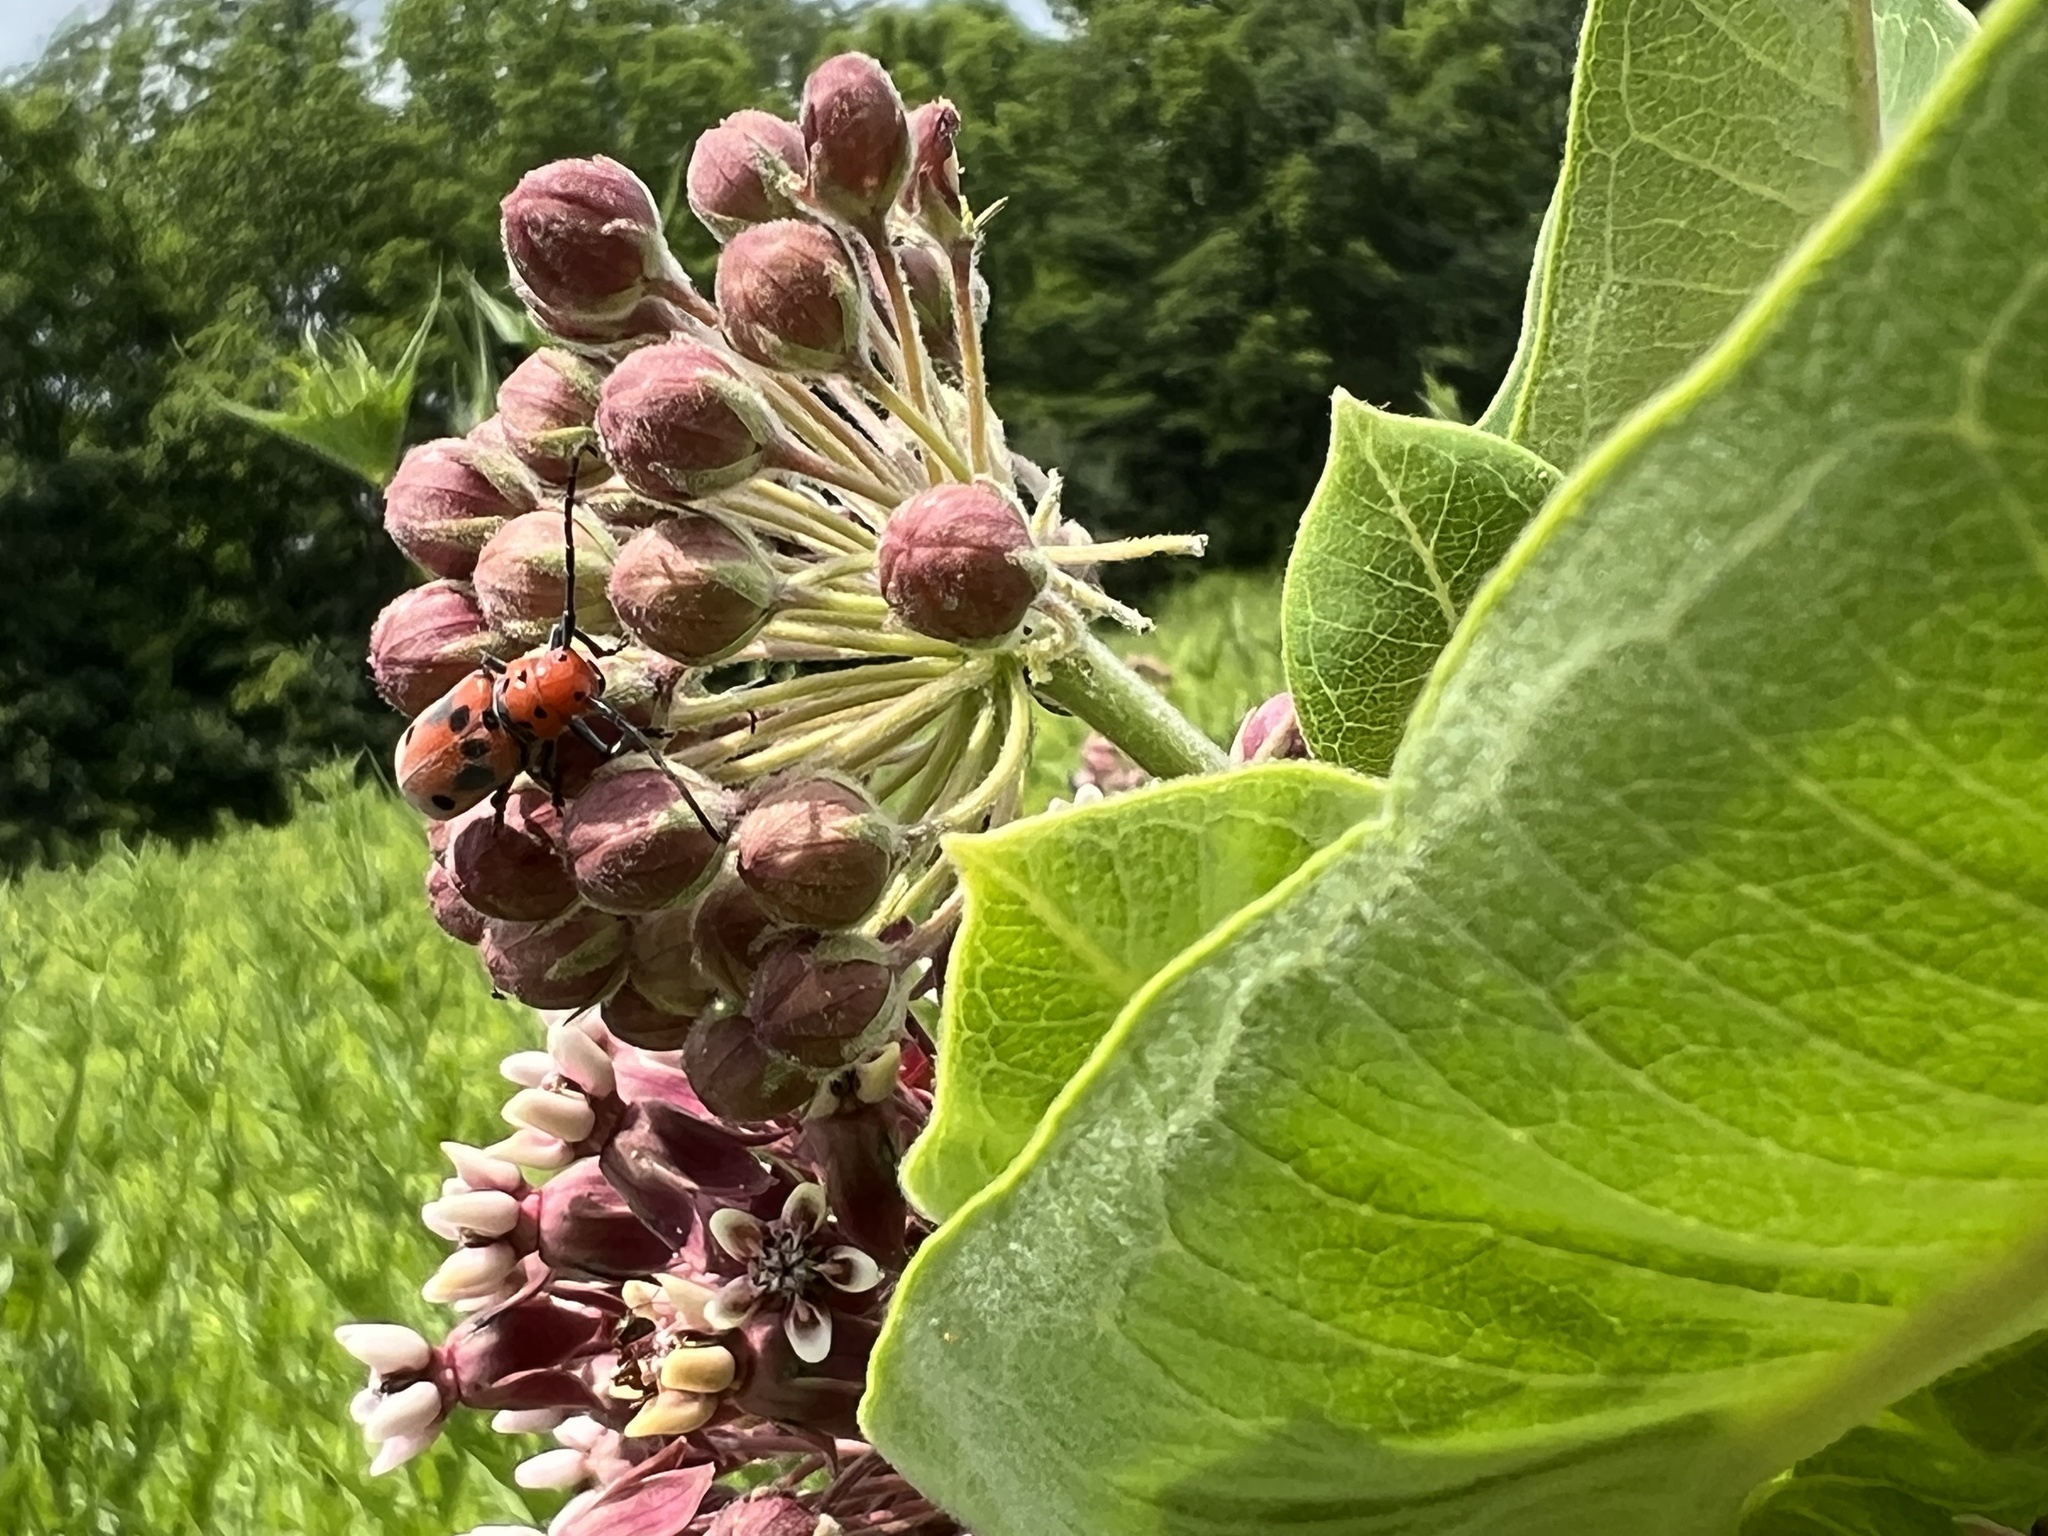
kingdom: Animalia
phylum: Arthropoda
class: Insecta
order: Coleoptera
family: Cerambycidae
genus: Tetraopes
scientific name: Tetraopes tetrophthalmus
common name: Red milkweed beetle
